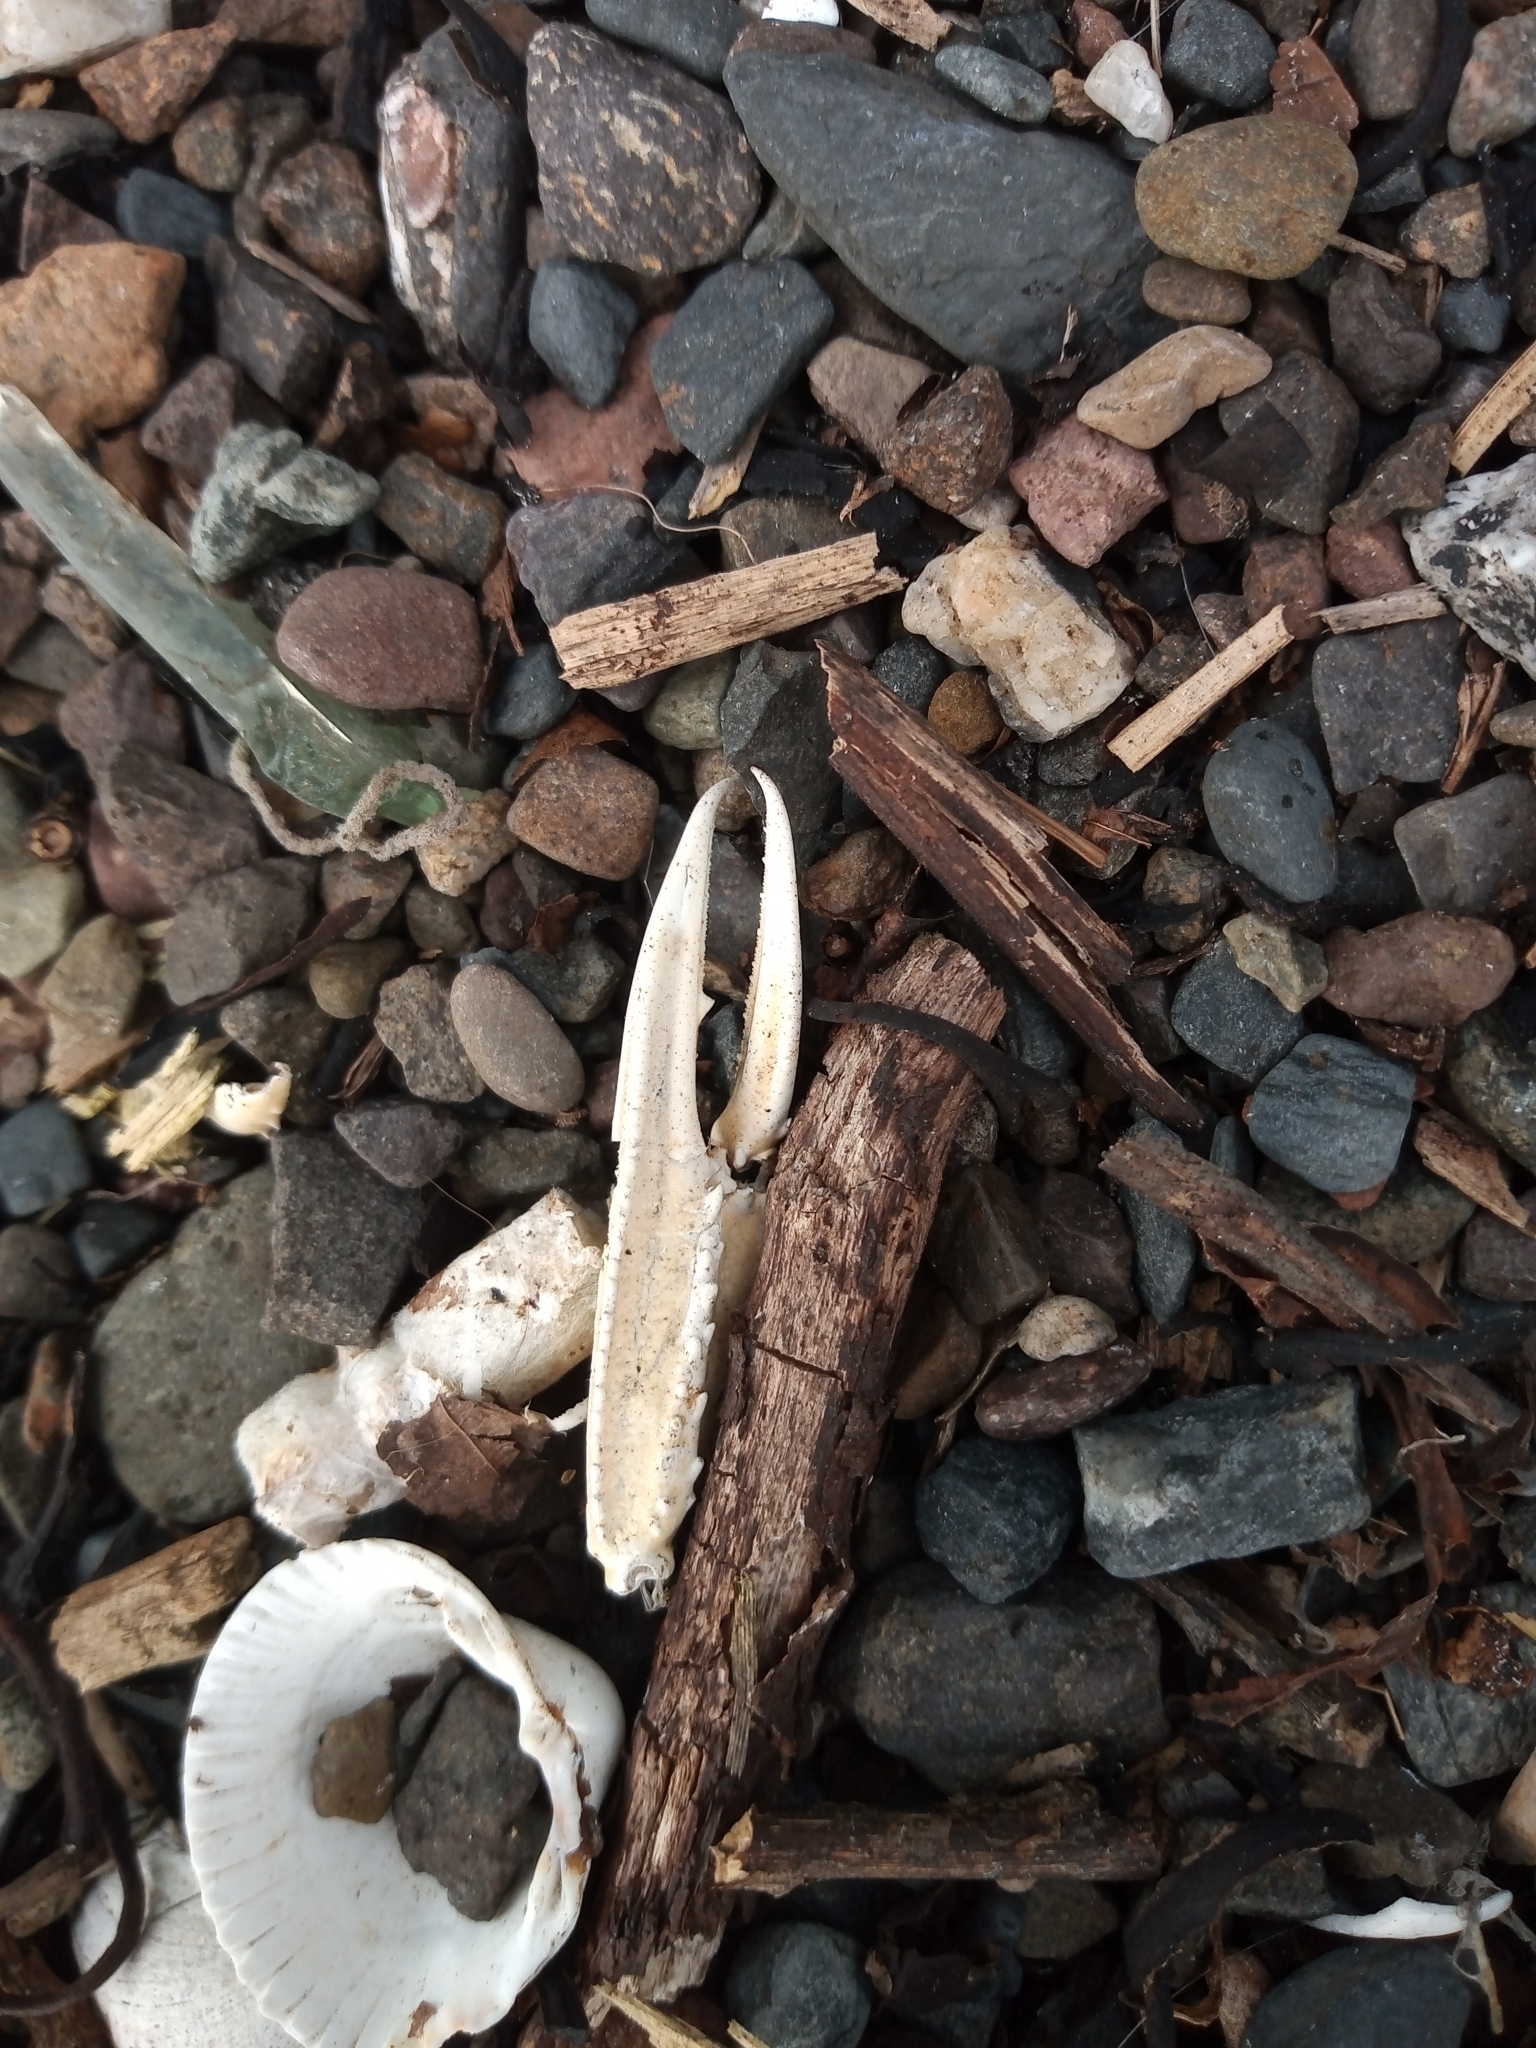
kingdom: Animalia
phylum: Arthropoda
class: Malacostraca
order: Decapoda
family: Nephropidae
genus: Nephrops
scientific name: Nephrops norvegicus
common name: Norway lobster
